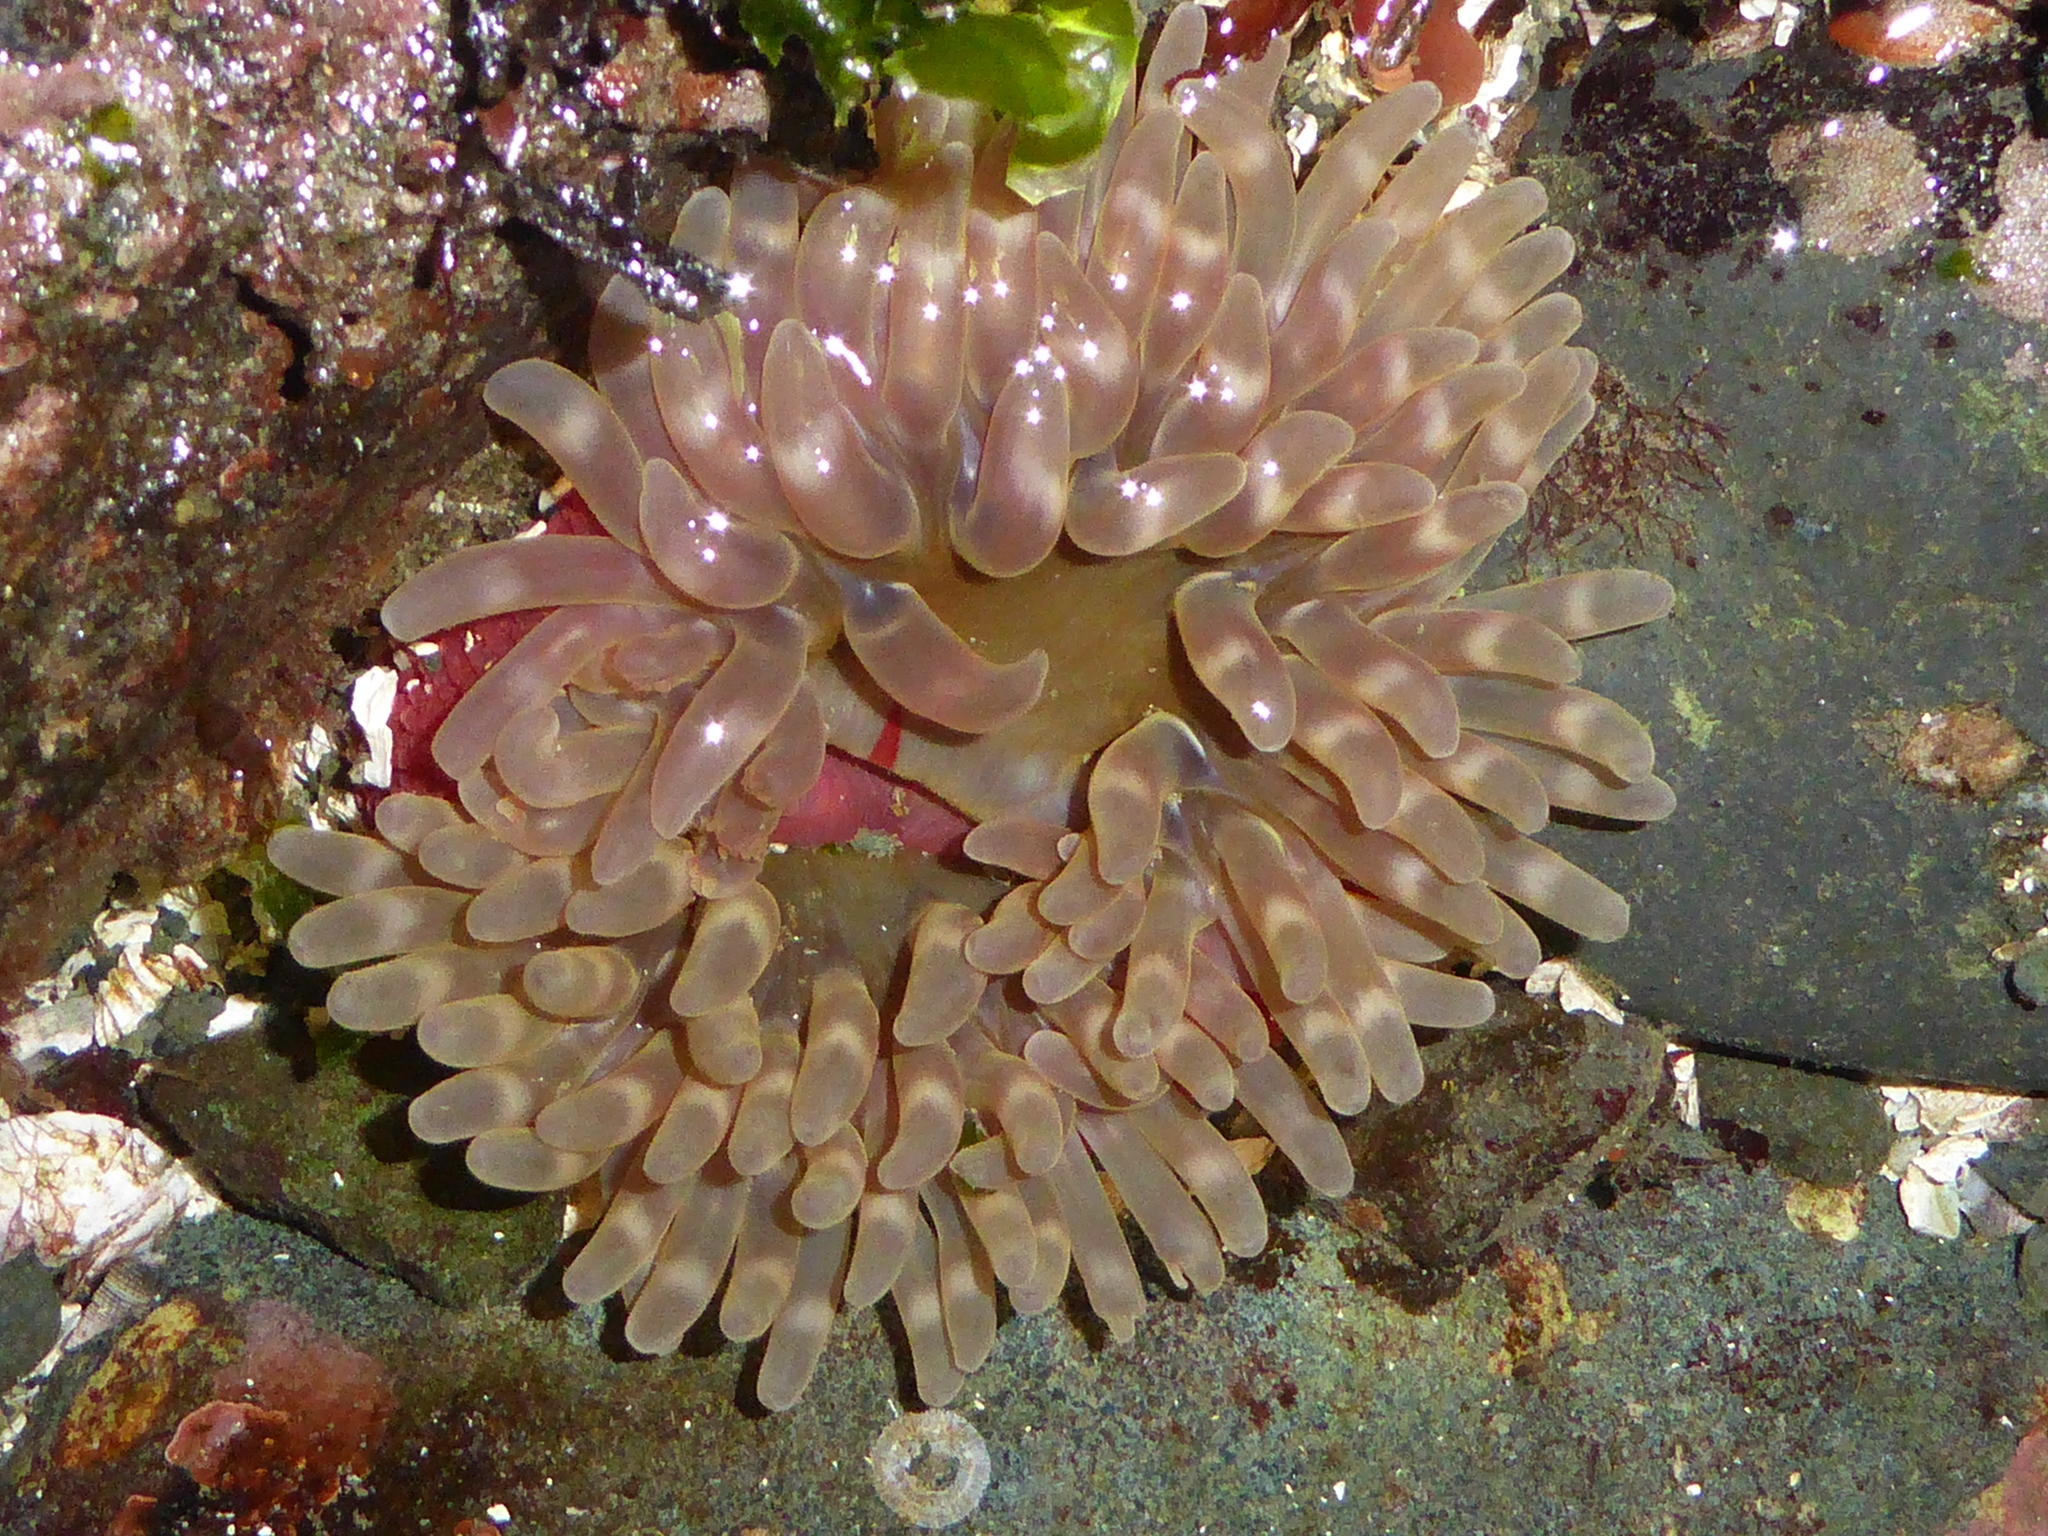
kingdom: Animalia
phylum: Cnidaria
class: Anthozoa
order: Actiniaria
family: Actiniidae
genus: Urticina
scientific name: Urticina clandestina
